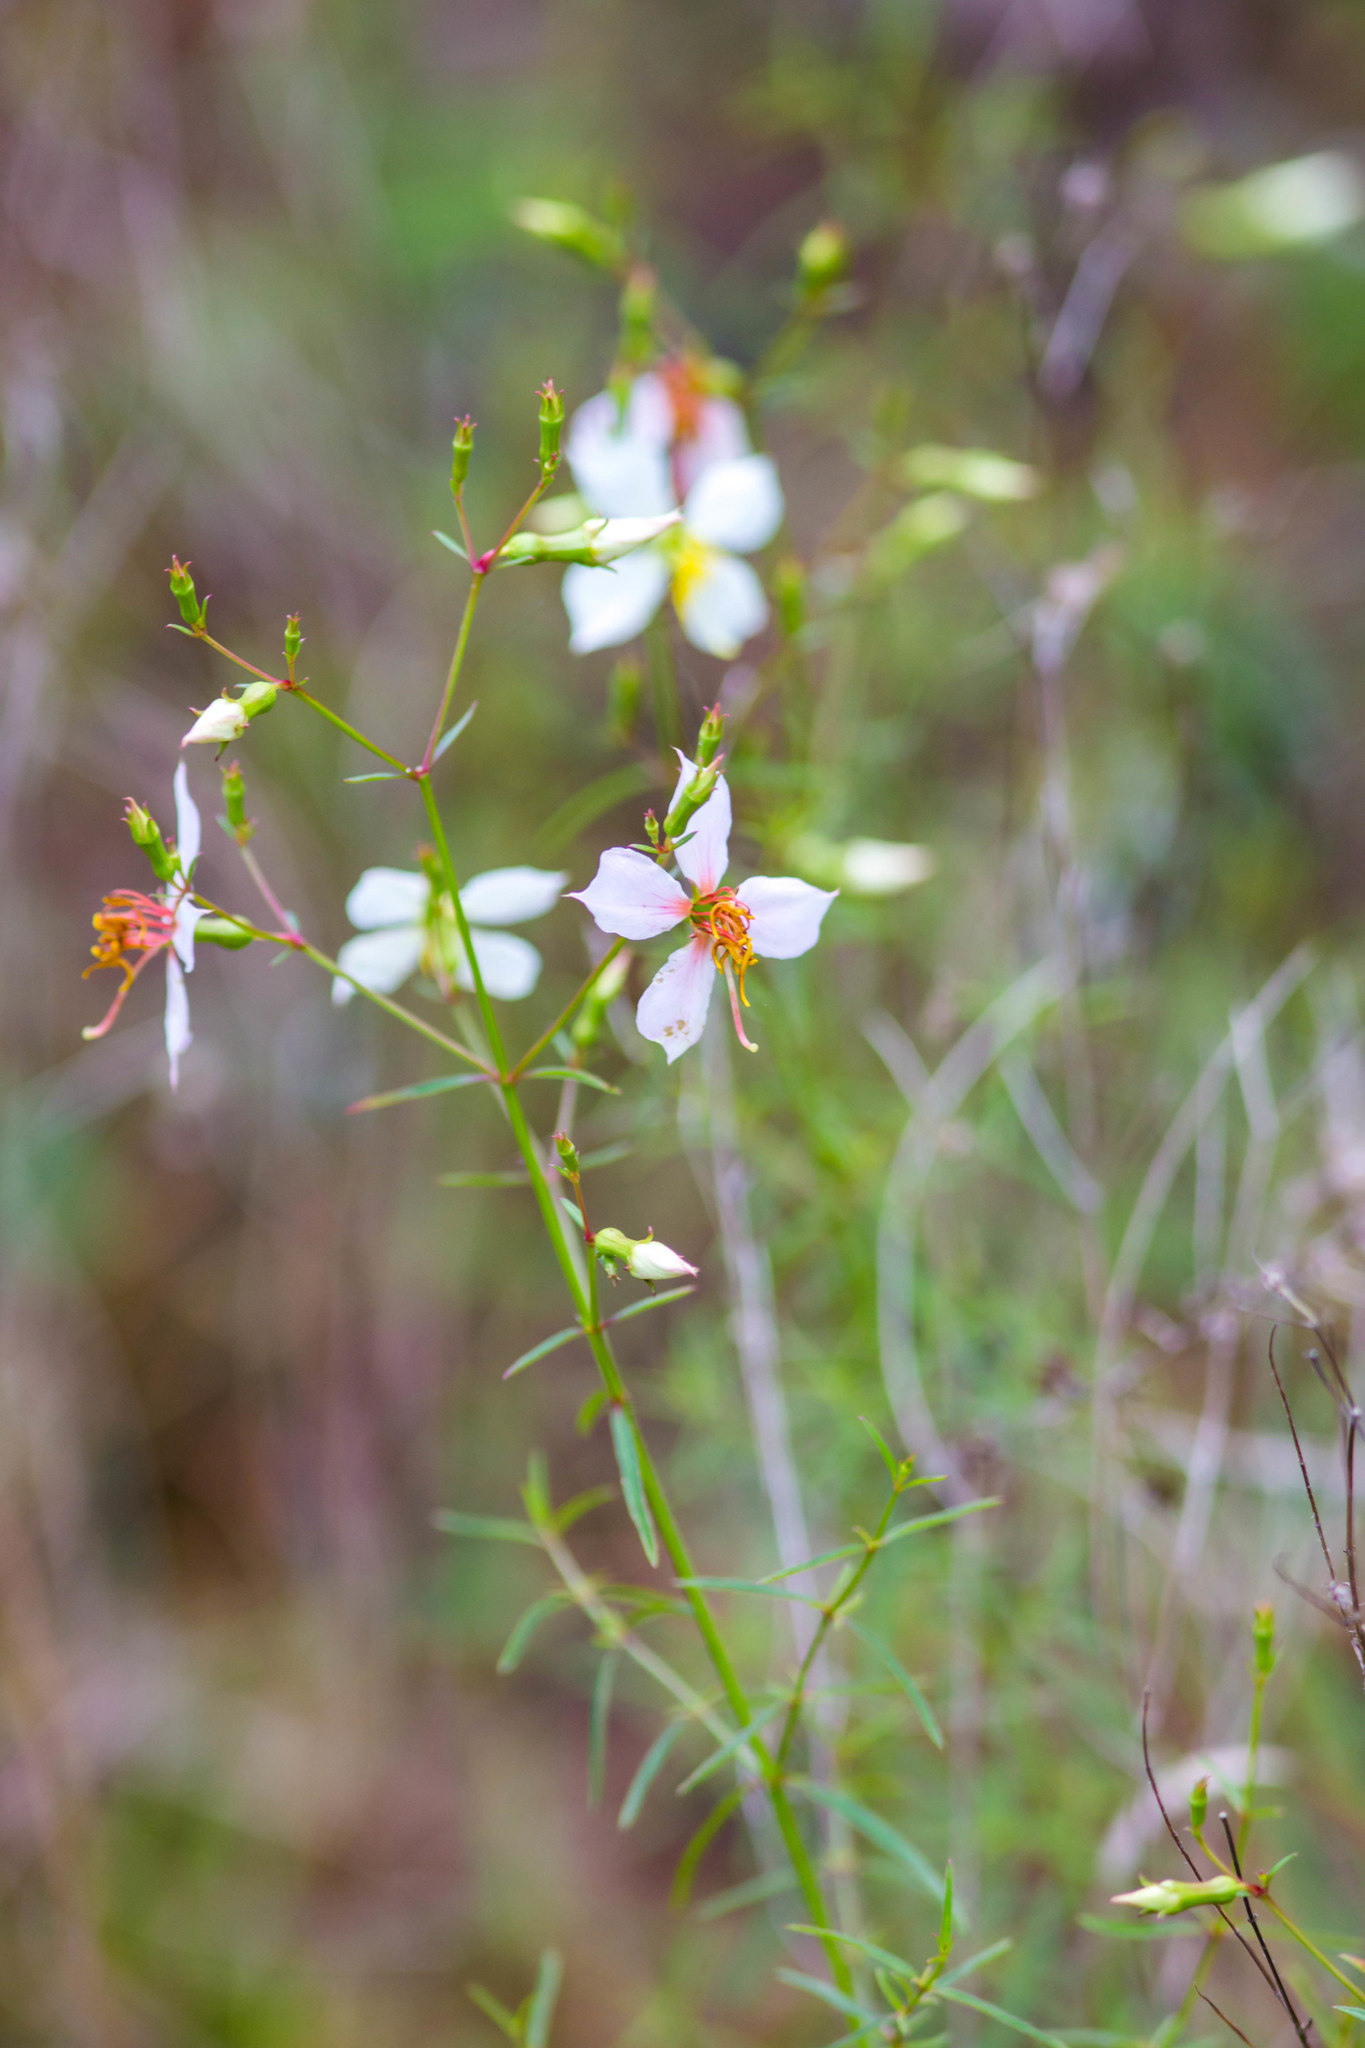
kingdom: Plantae
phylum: Tracheophyta
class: Magnoliopsida
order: Myrtales
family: Melastomataceae
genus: Rhexia
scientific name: Rhexia mariana
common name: Dull meadow-pitcher
